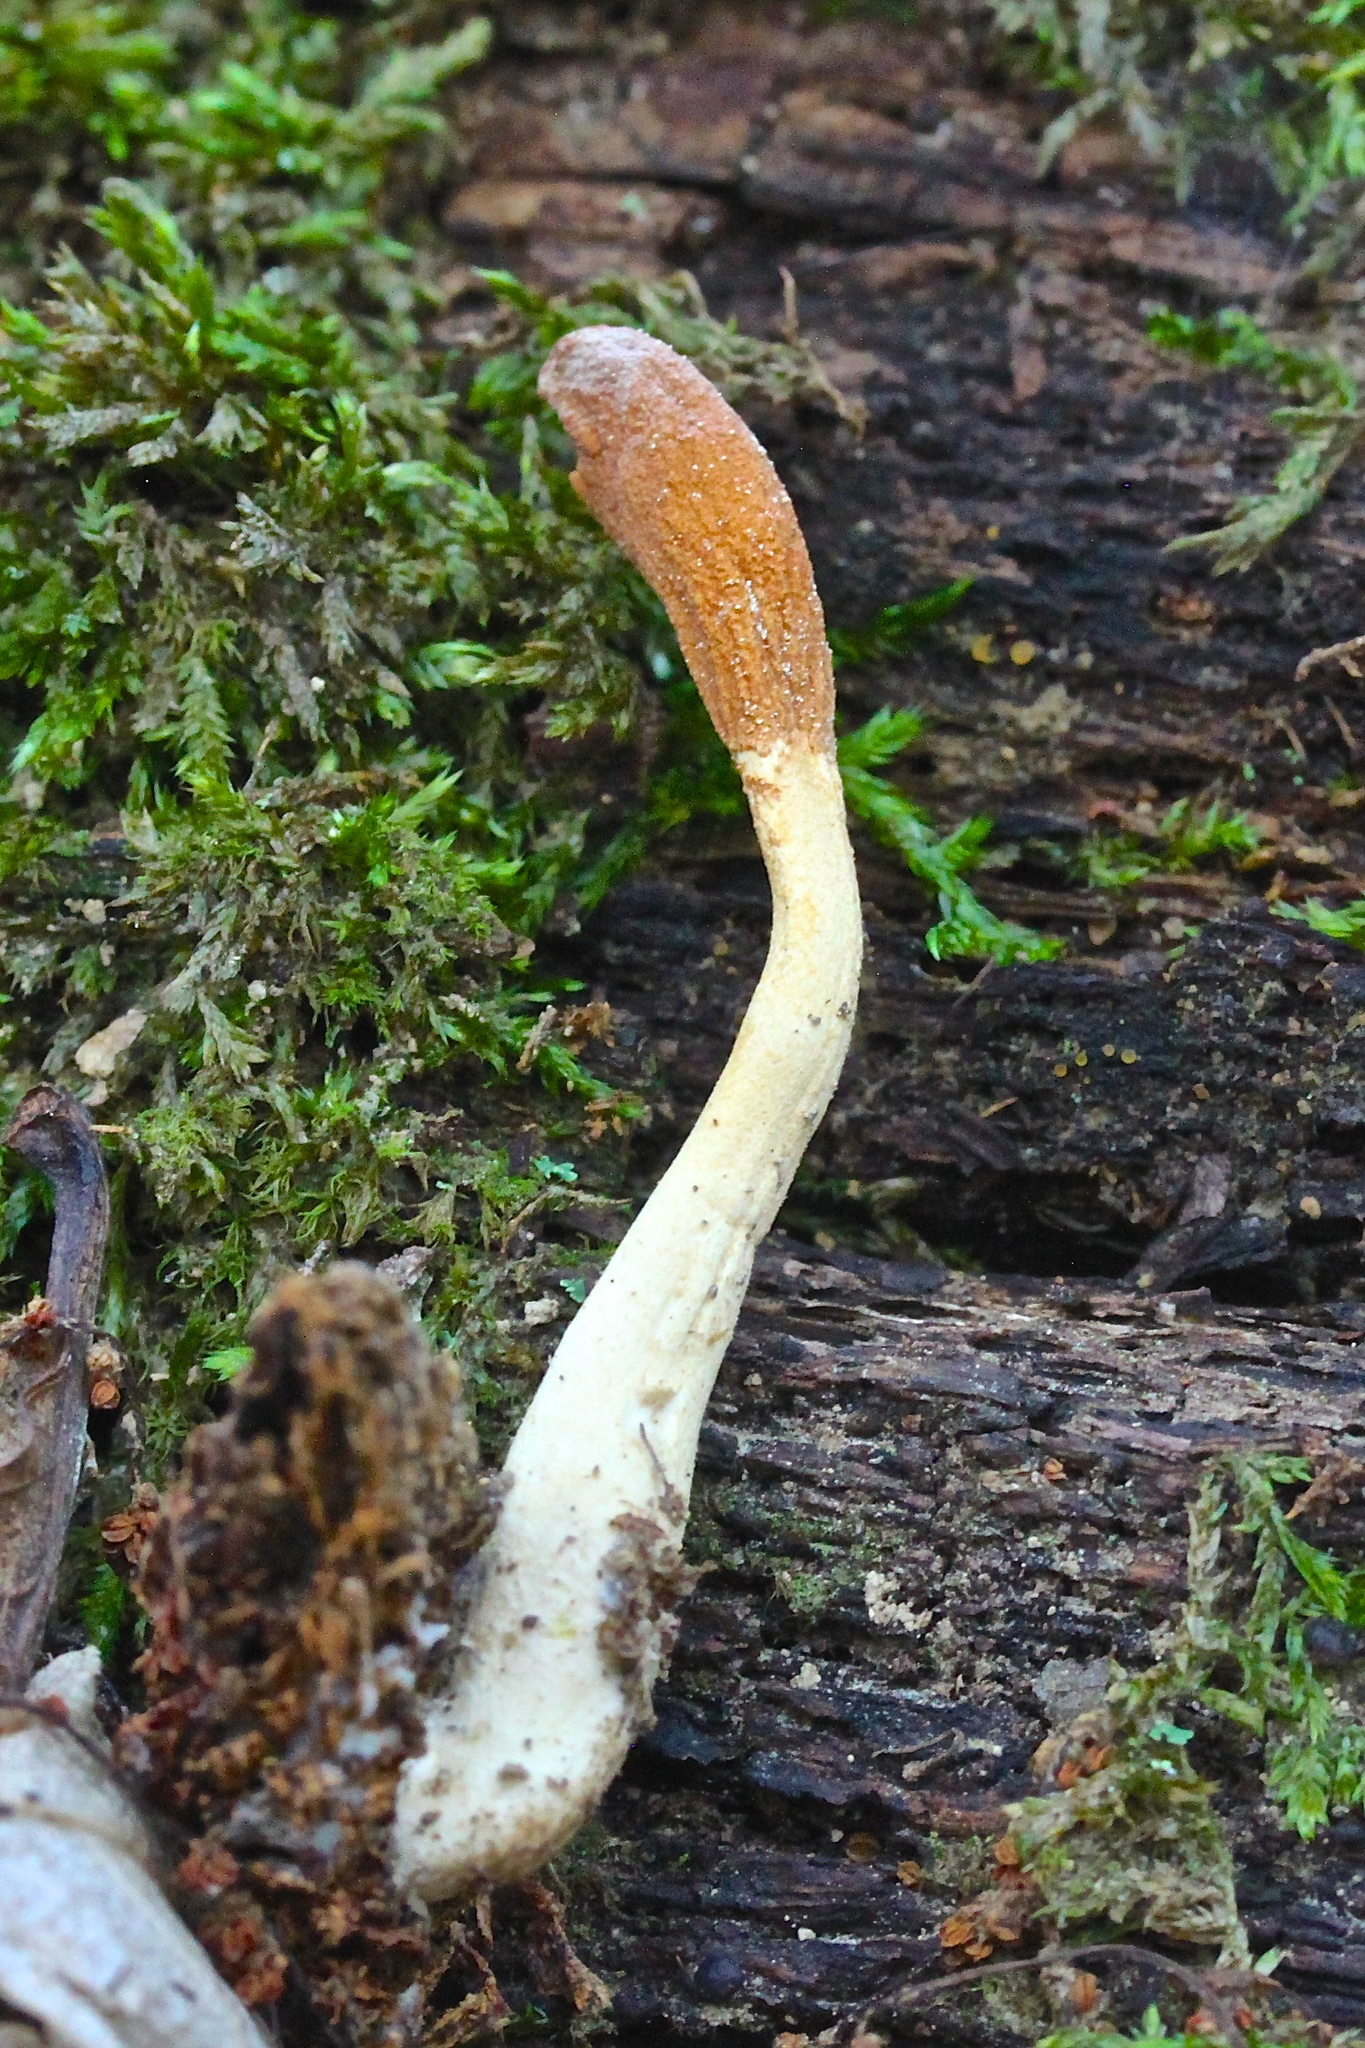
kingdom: Fungi
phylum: Ascomycota
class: Sordariomycetes
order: Hypocreales
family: Hypocreaceae
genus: Trichoderma
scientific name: Trichoderma alutaceum
